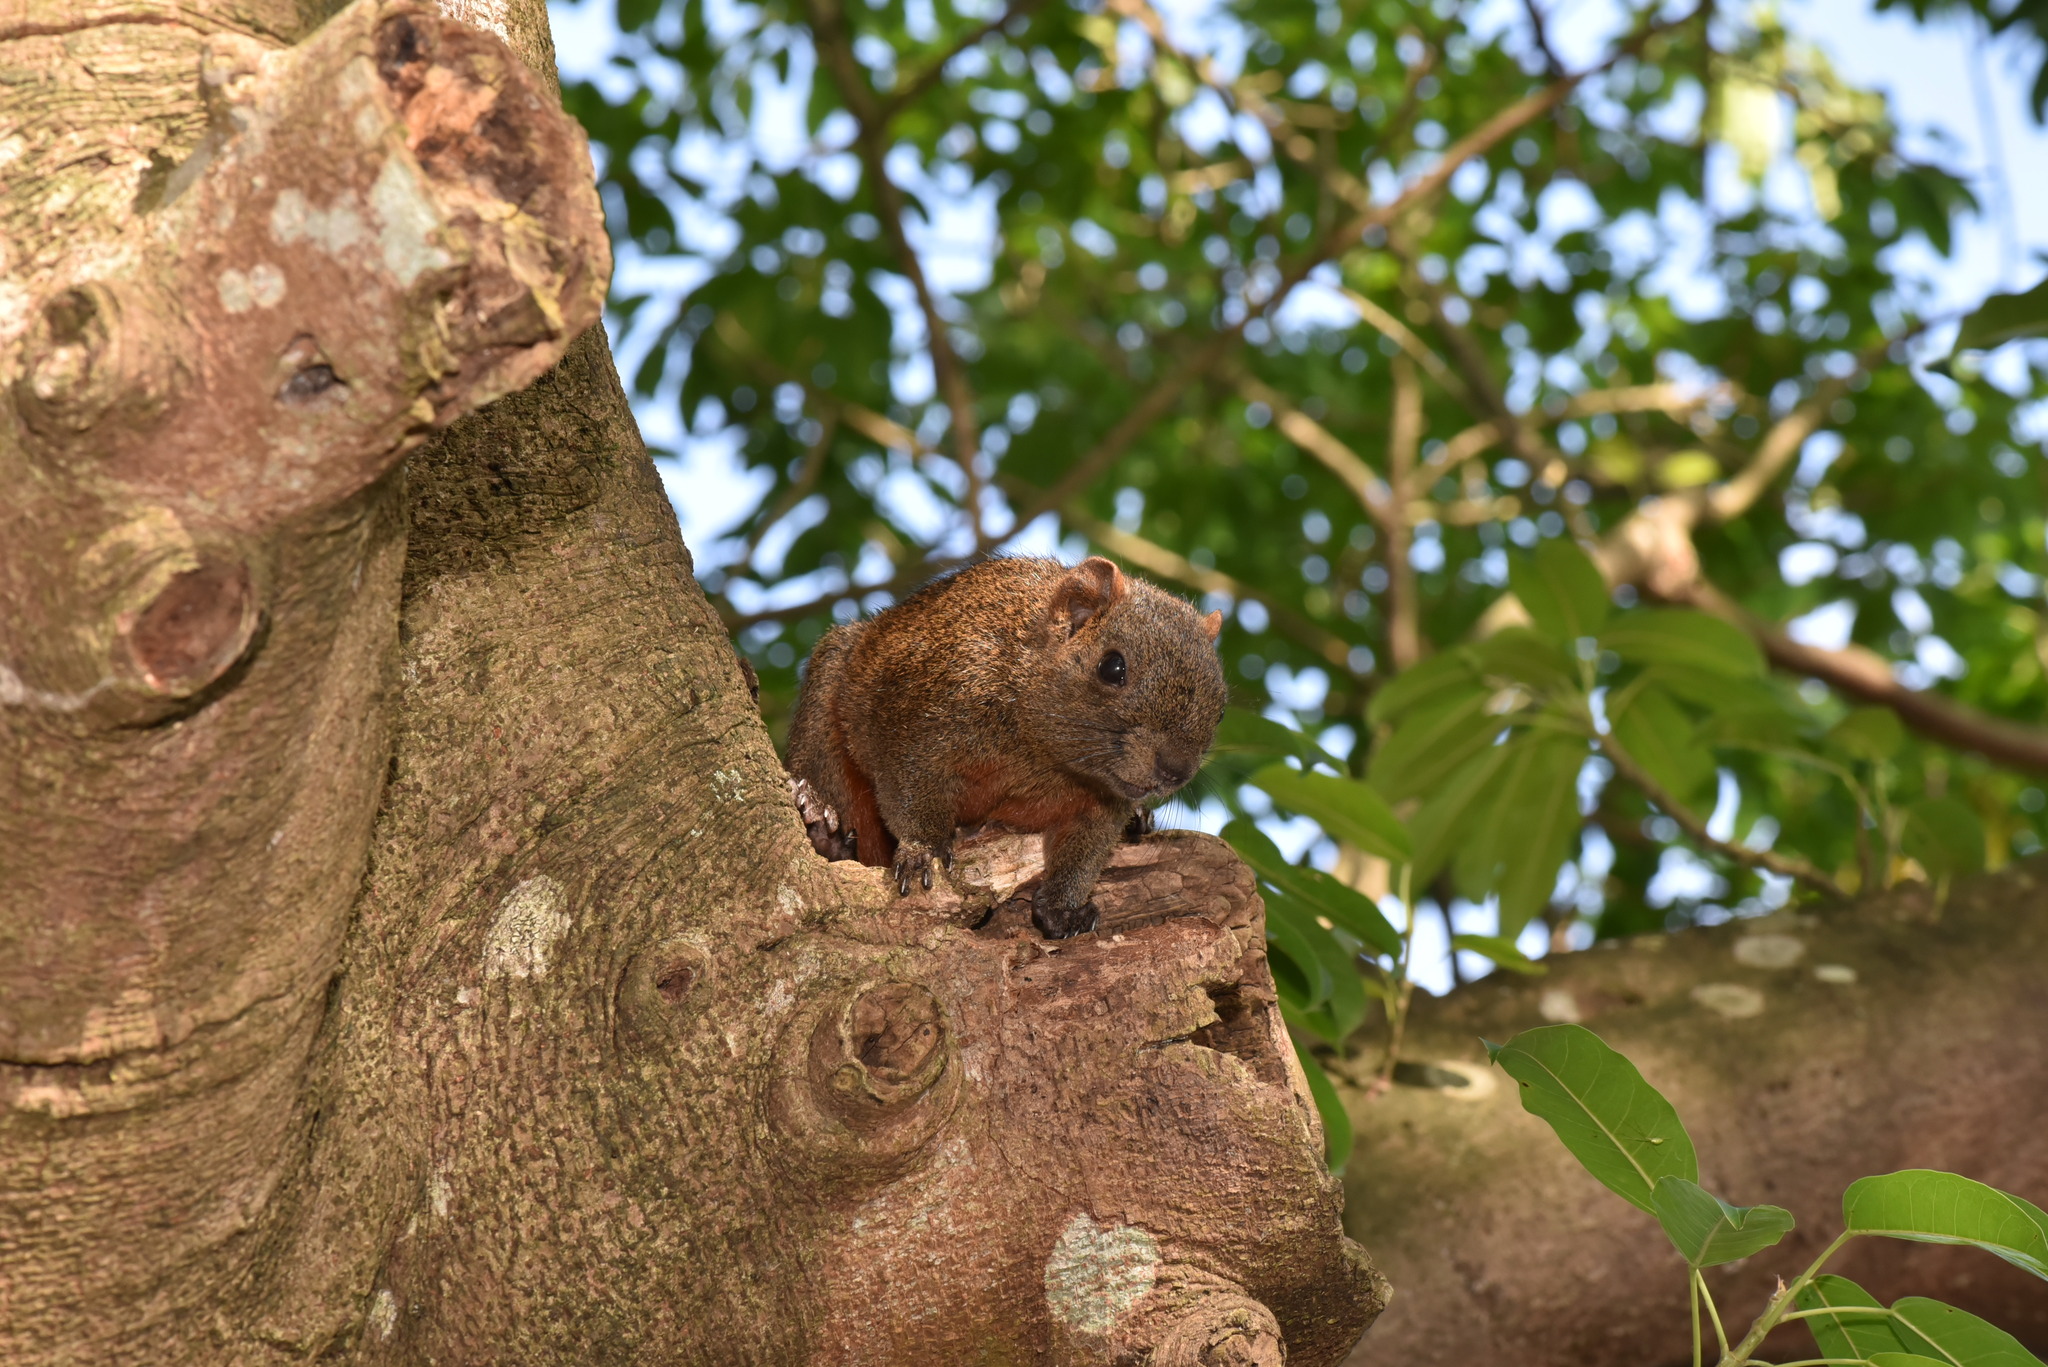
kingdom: Animalia
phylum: Chordata
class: Mammalia
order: Rodentia
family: Sciuridae
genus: Callosciurus
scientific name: Callosciurus erythraeus
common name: Pallas's squirrel
